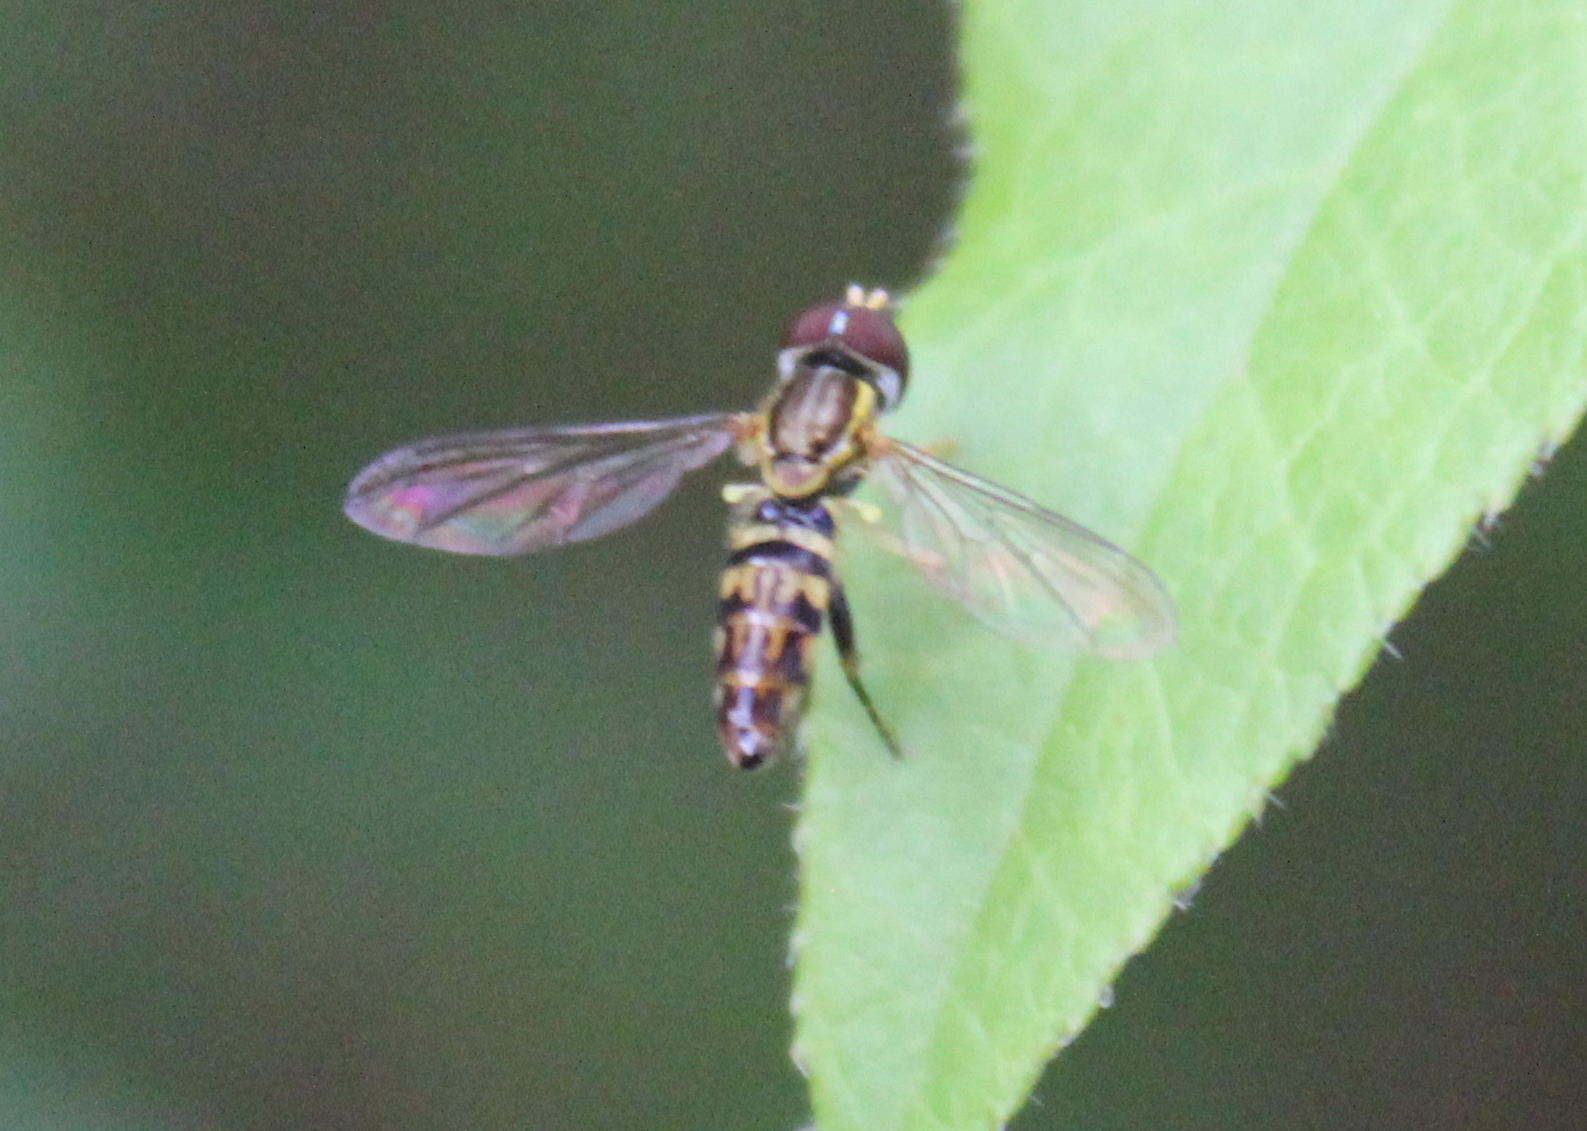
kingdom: Animalia
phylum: Arthropoda
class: Insecta
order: Diptera
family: Syrphidae
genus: Toxomerus
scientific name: Toxomerus geminatus
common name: Eastern calligrapher
